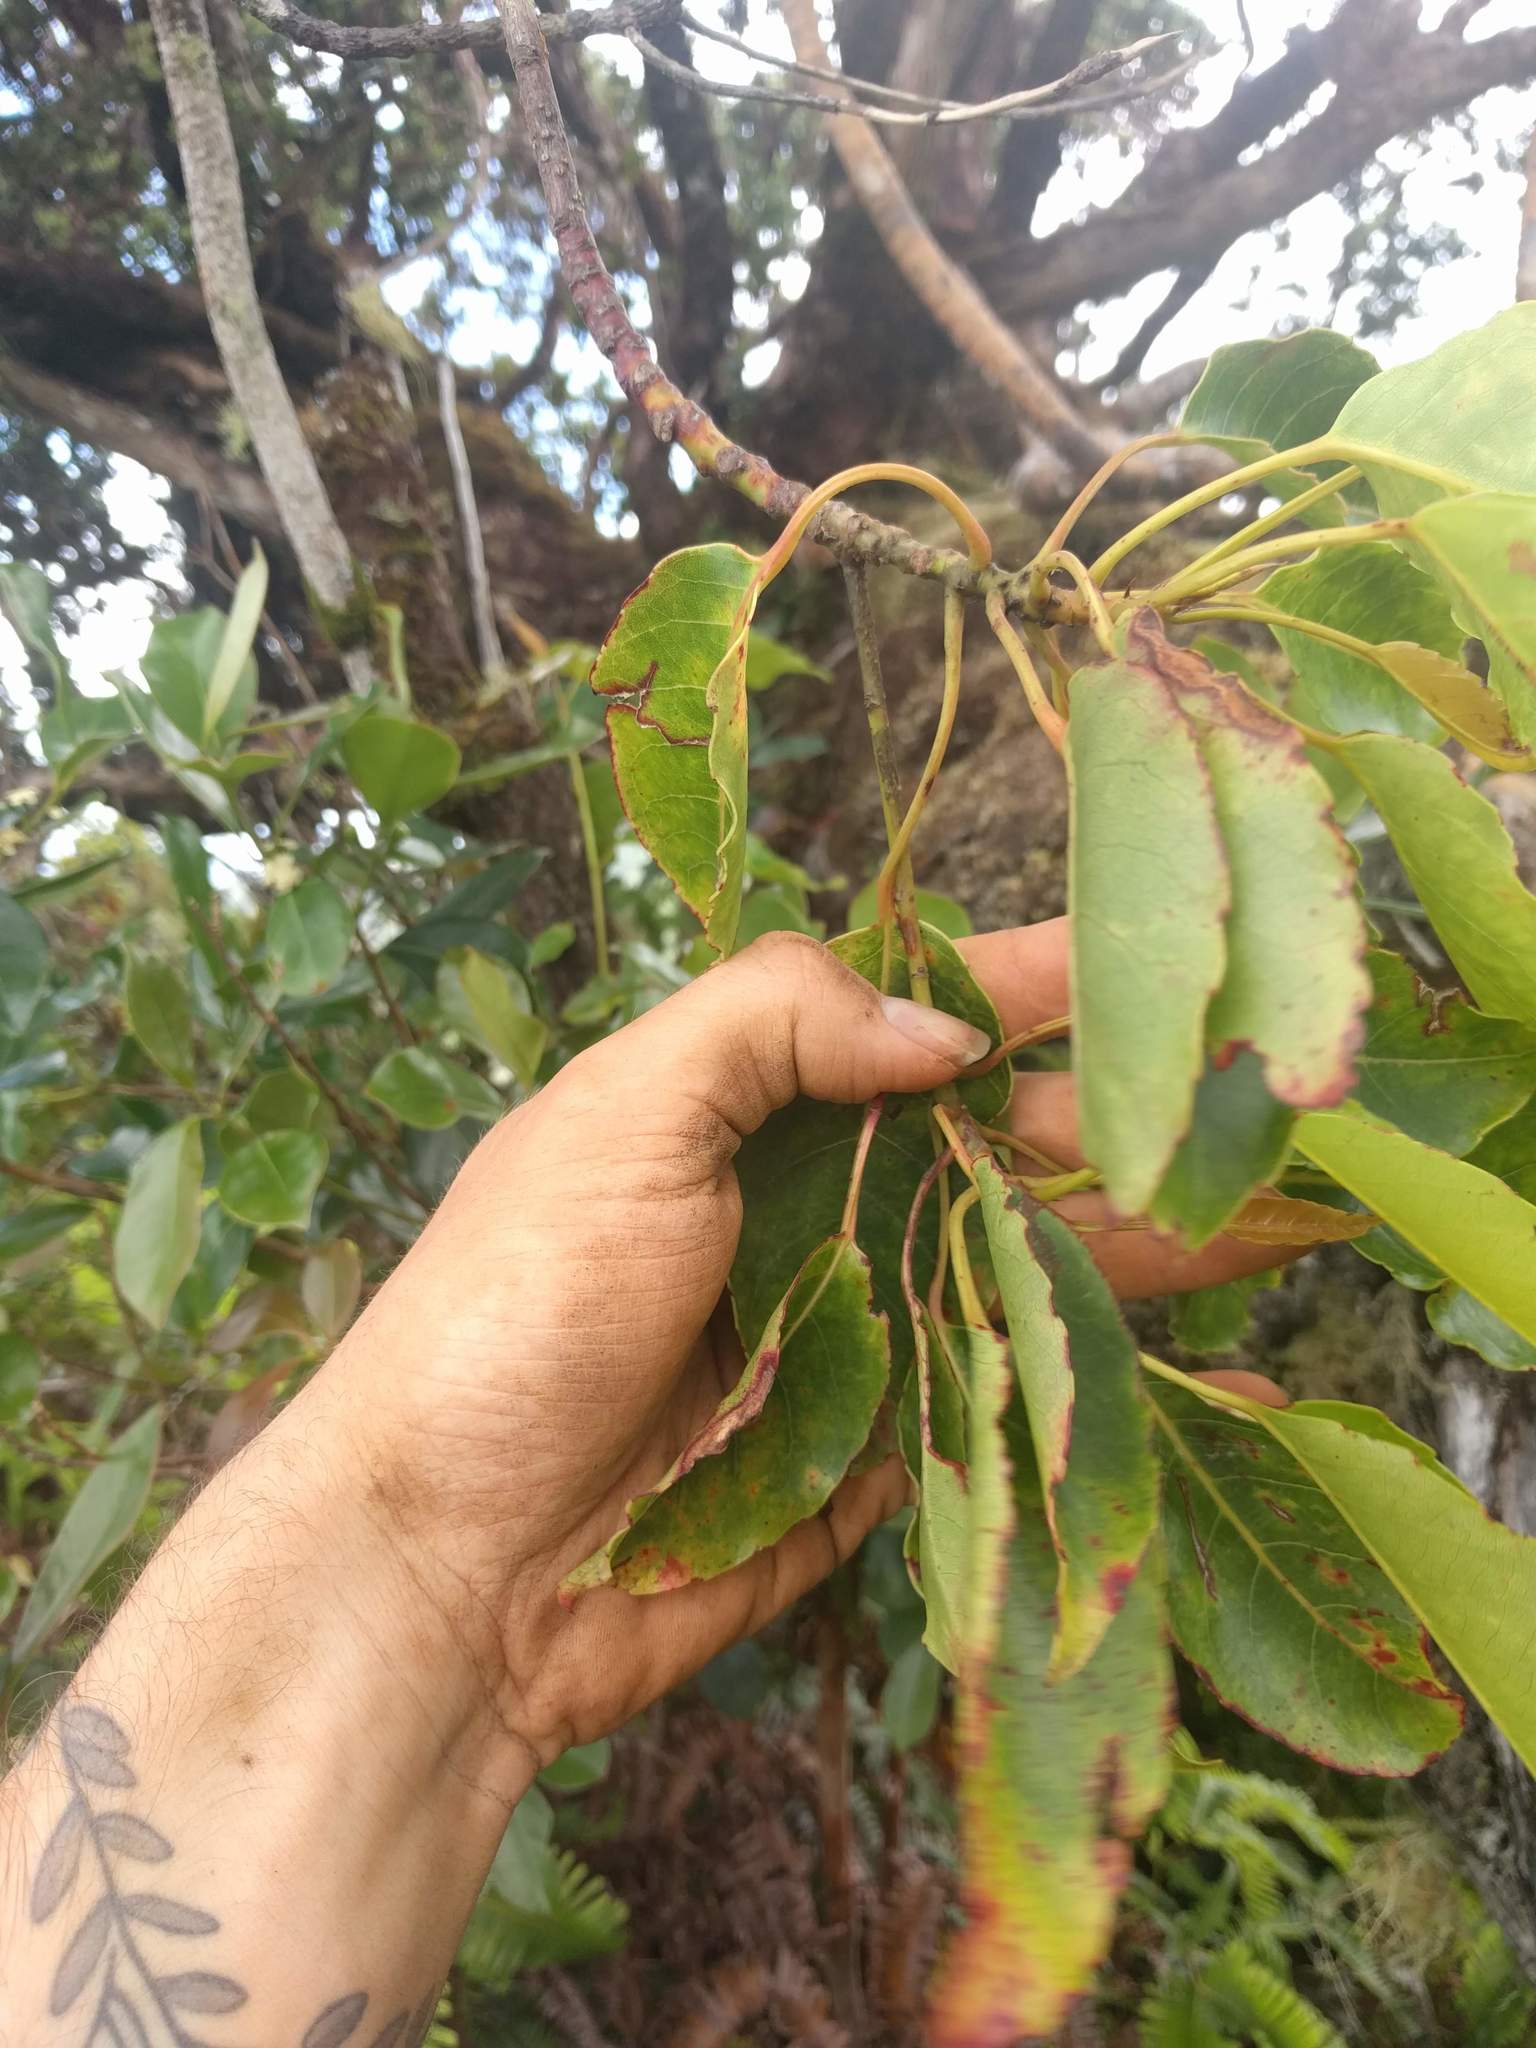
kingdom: Plantae
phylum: Tracheophyta
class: Magnoliopsida
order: Oxalidales
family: Elaeocarpaceae
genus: Elaeocarpus
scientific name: Elaeocarpus bifidus
